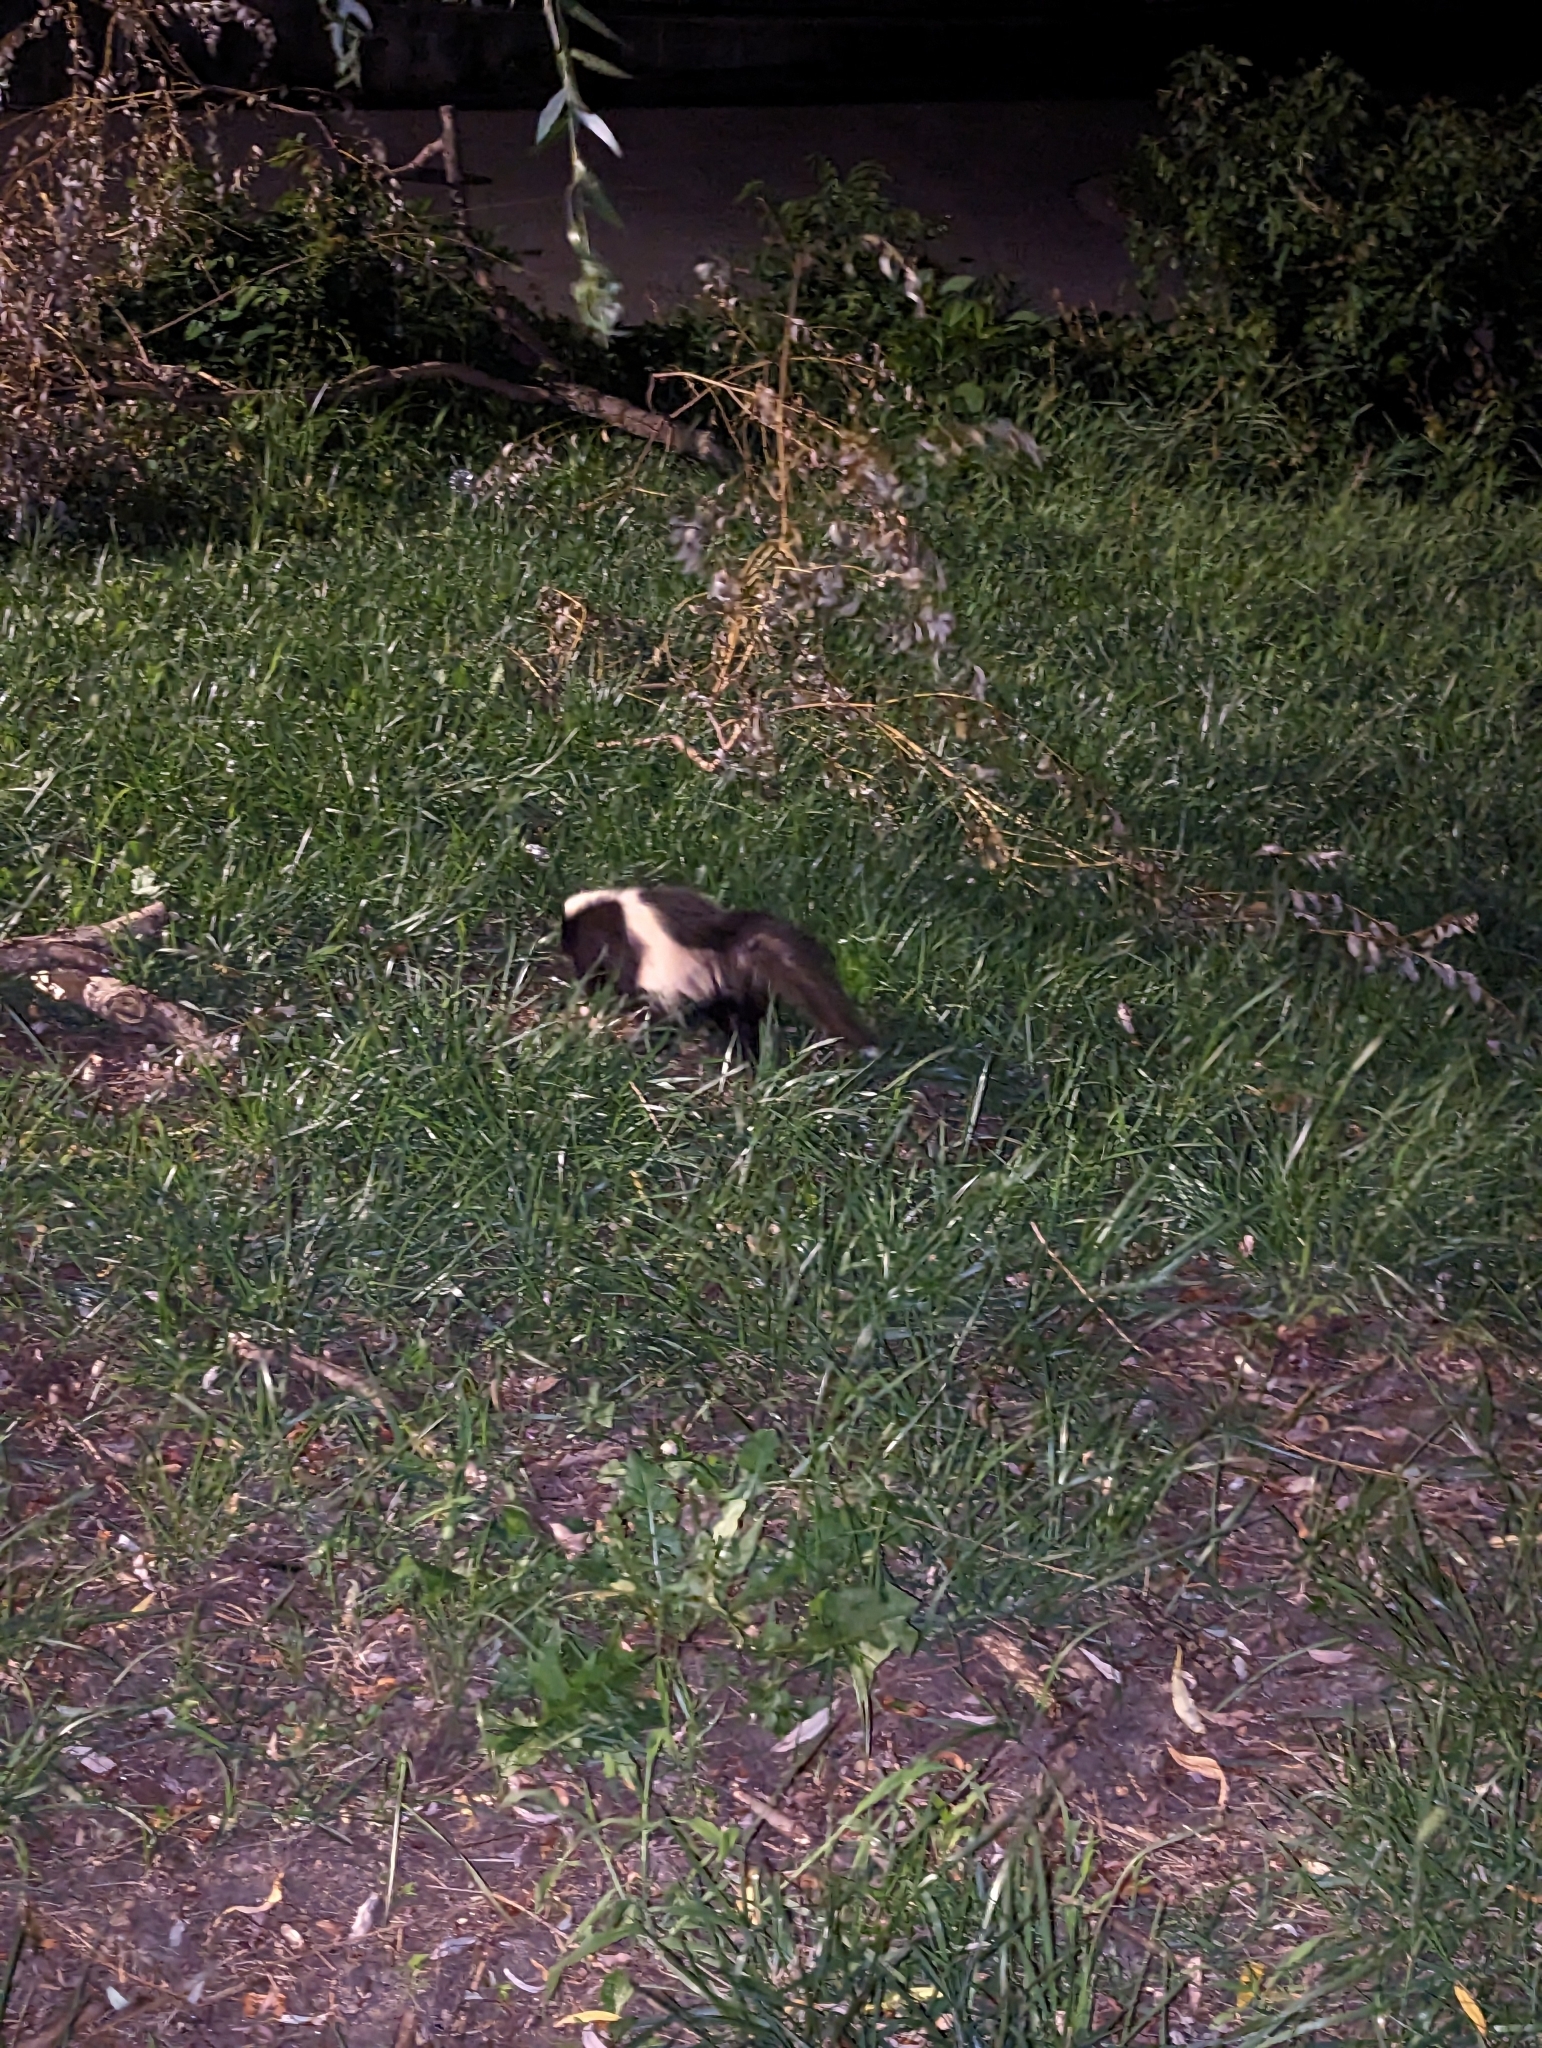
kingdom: Animalia
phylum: Chordata
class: Mammalia
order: Carnivora
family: Mephitidae
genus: Mephitis
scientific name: Mephitis mephitis
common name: Striped skunk
